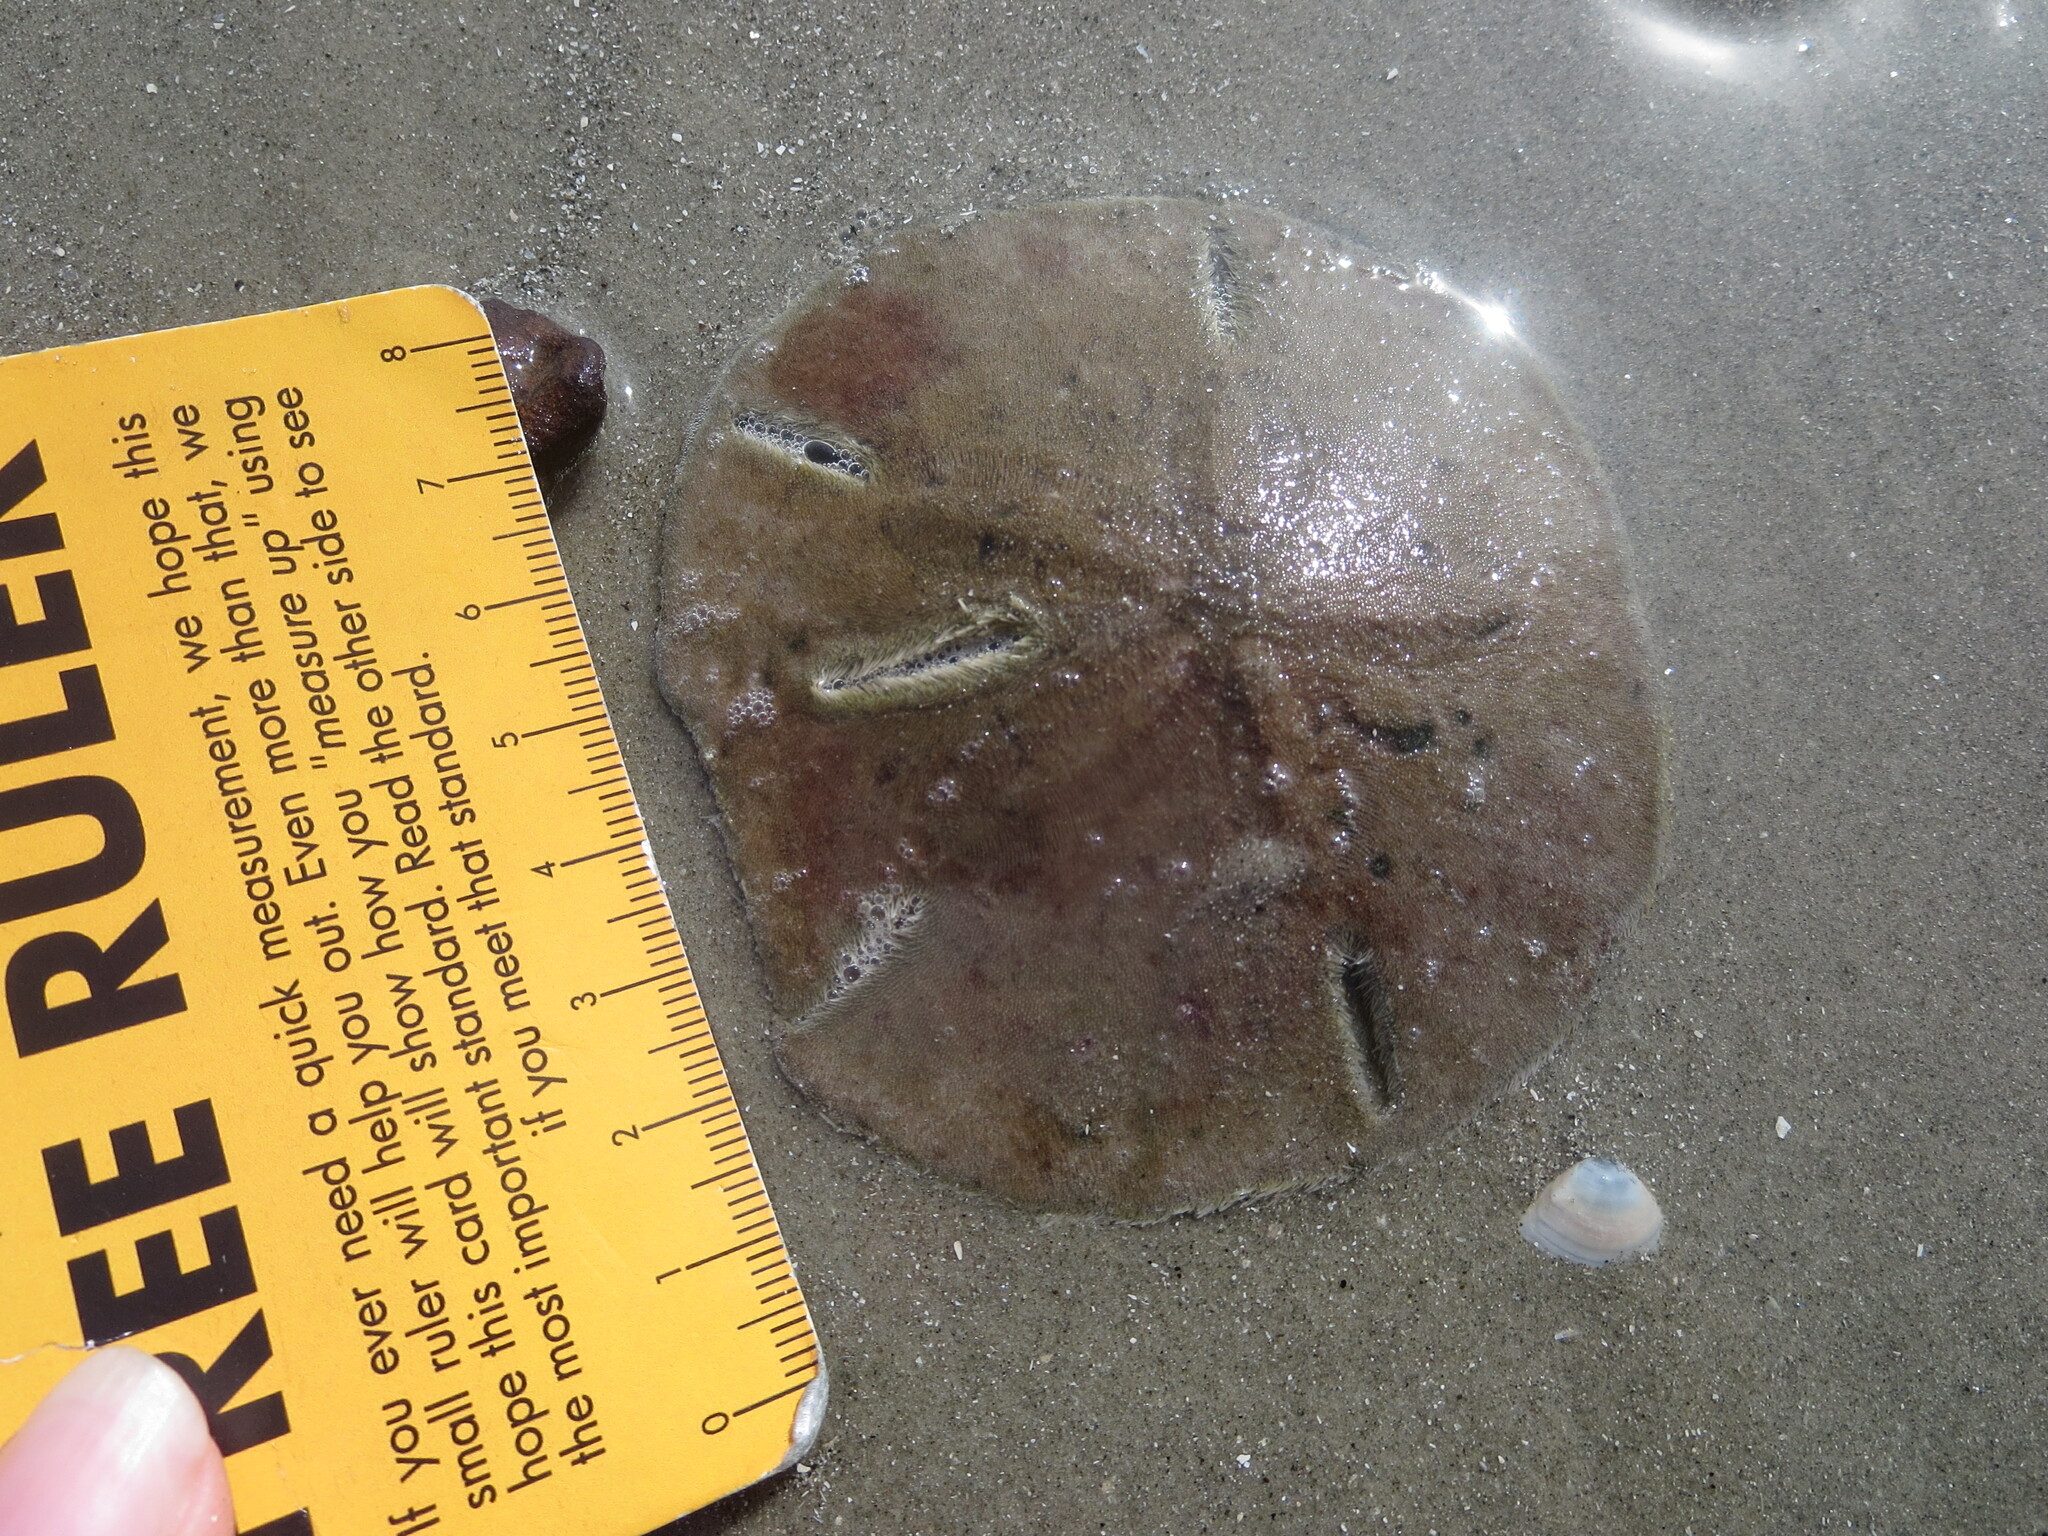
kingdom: Animalia
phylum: Echinodermata
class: Echinoidea
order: Echinolampadacea
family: Mellitidae
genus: Mellita
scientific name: Mellita isometra
